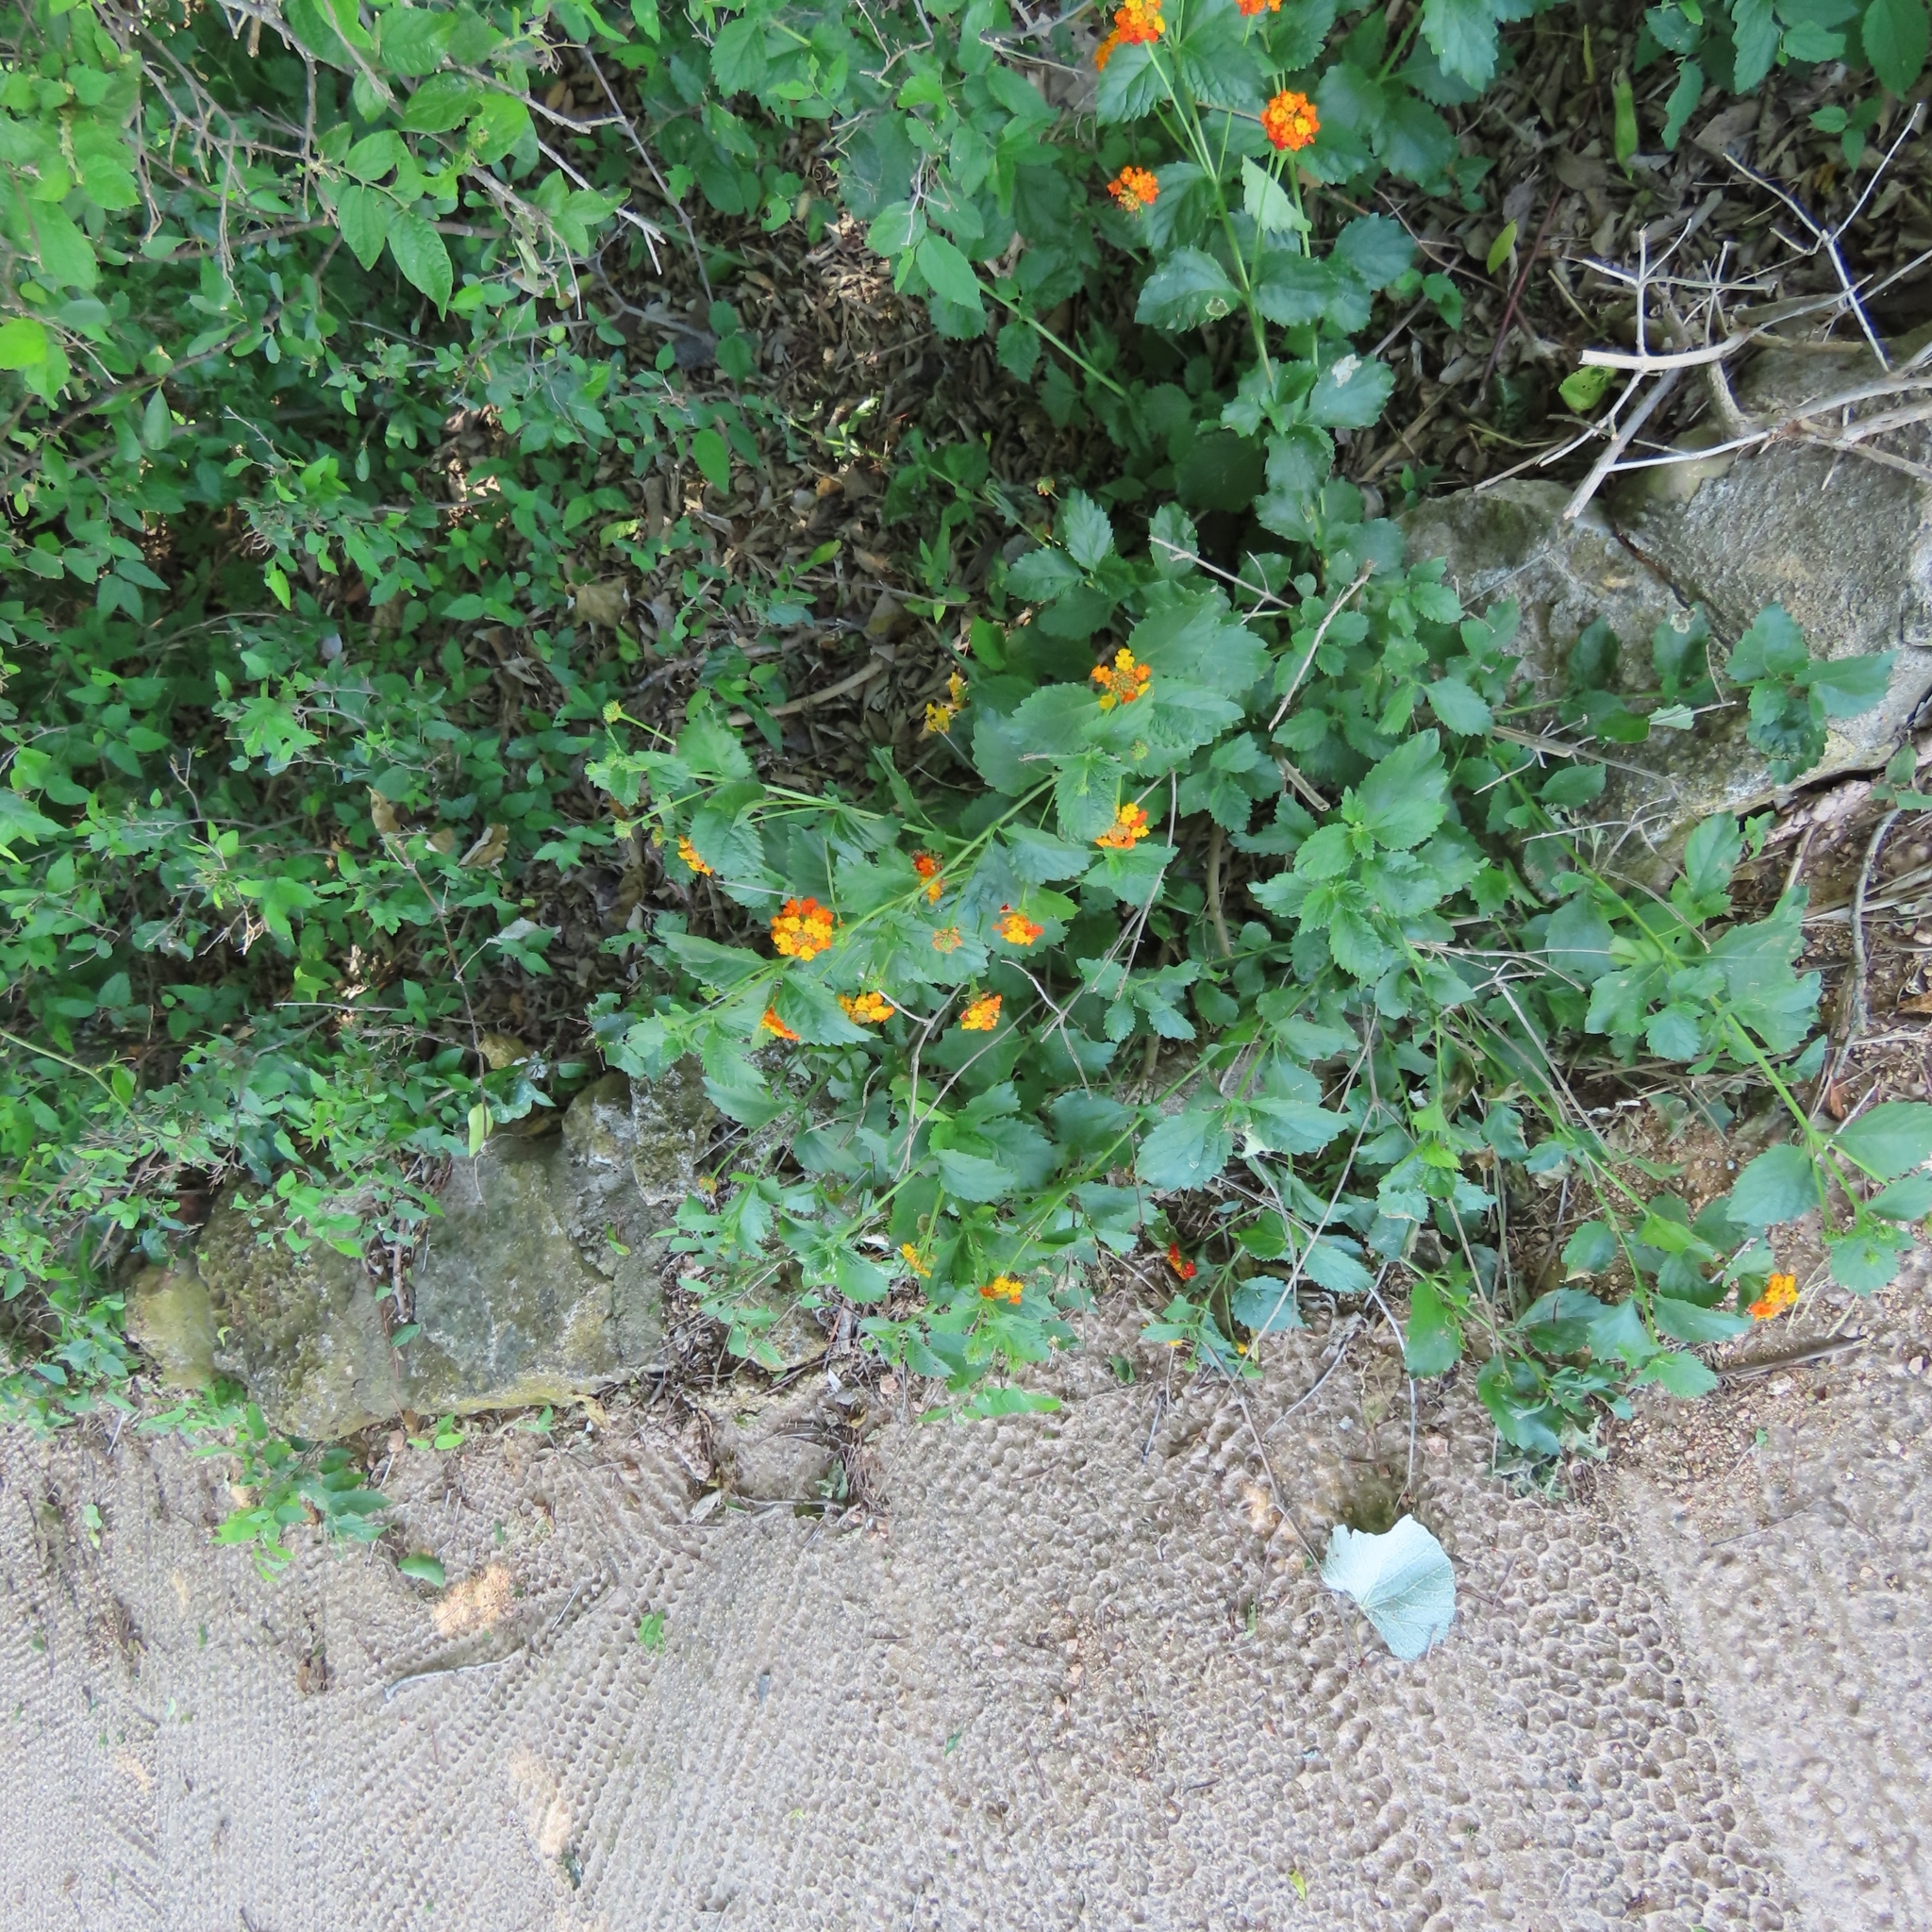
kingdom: Plantae
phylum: Tracheophyta
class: Magnoliopsida
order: Lamiales
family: Verbenaceae
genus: Lantana
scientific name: Lantana urticoides
